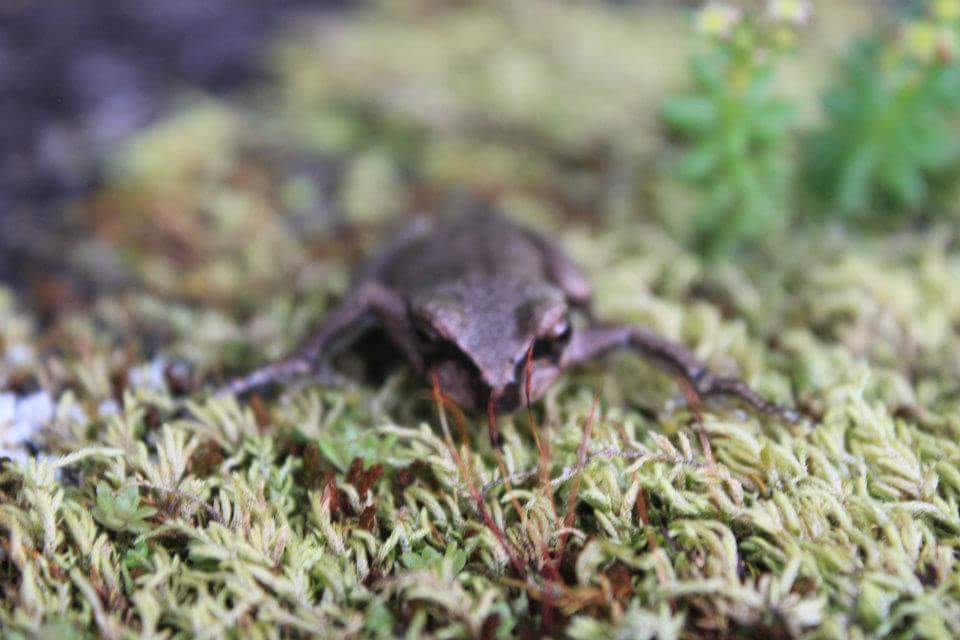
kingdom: Animalia
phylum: Chordata
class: Amphibia
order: Anura
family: Hylidae
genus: Sarcohyla
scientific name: Sarcohyla bistincta
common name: Cope’s streamside treefrog
